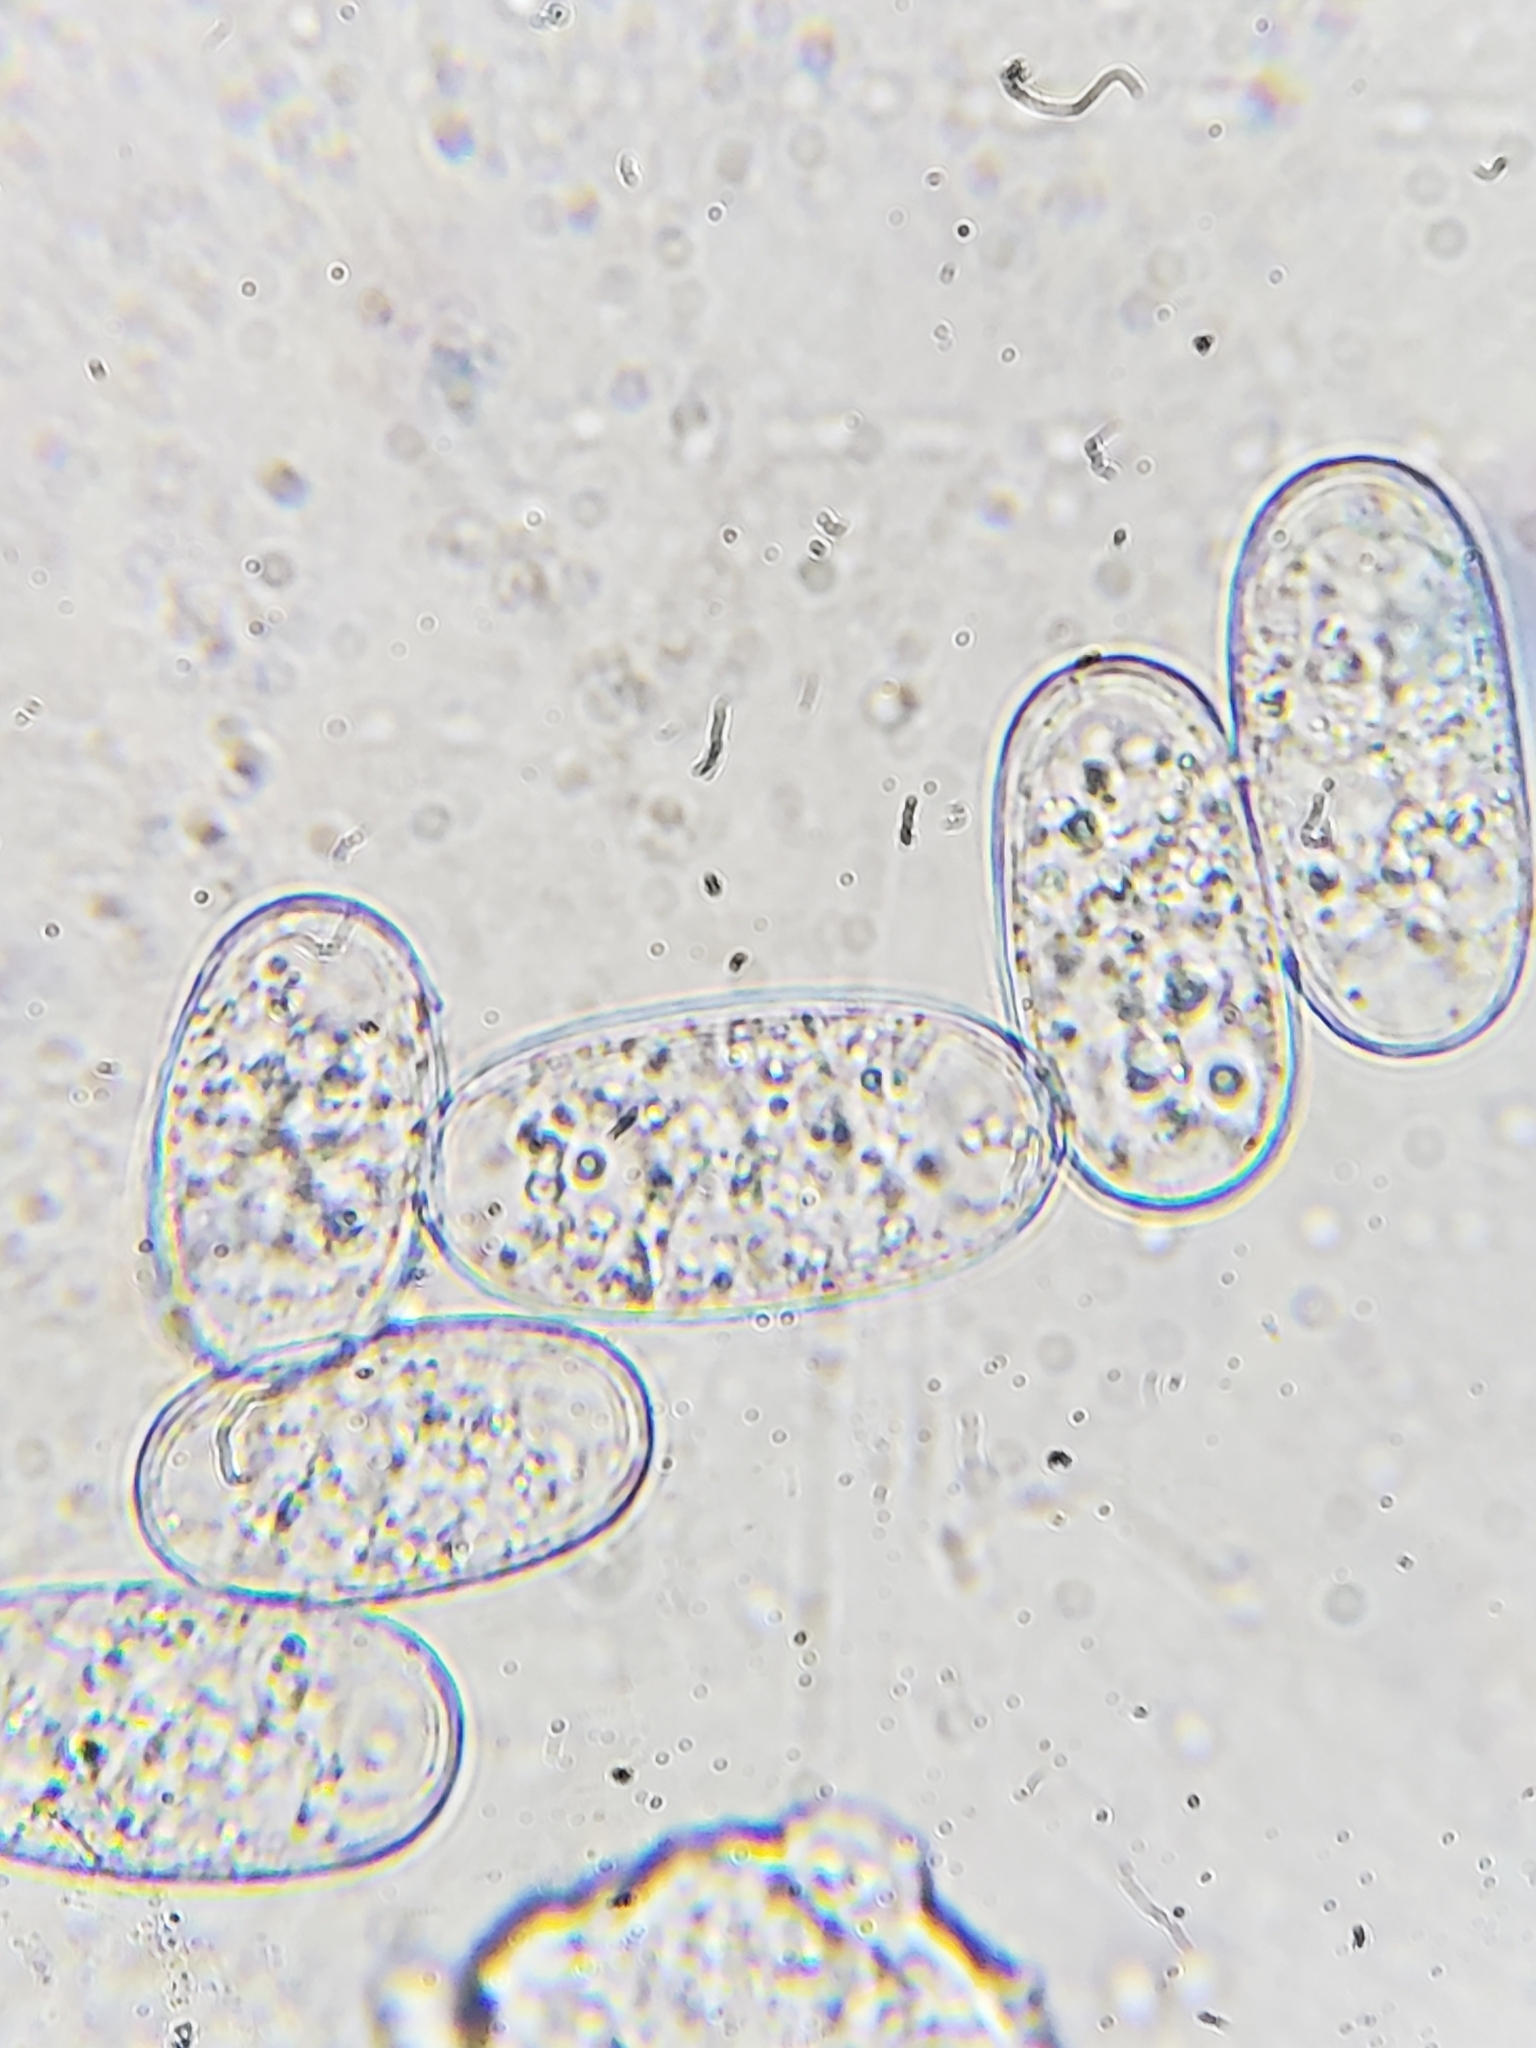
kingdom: Fungi
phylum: Ascomycota
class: Leotiomycetes
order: Helotiales
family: Erysiphaceae
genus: Podosphaera
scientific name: Podosphaera pannosa
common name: Rose mildew
